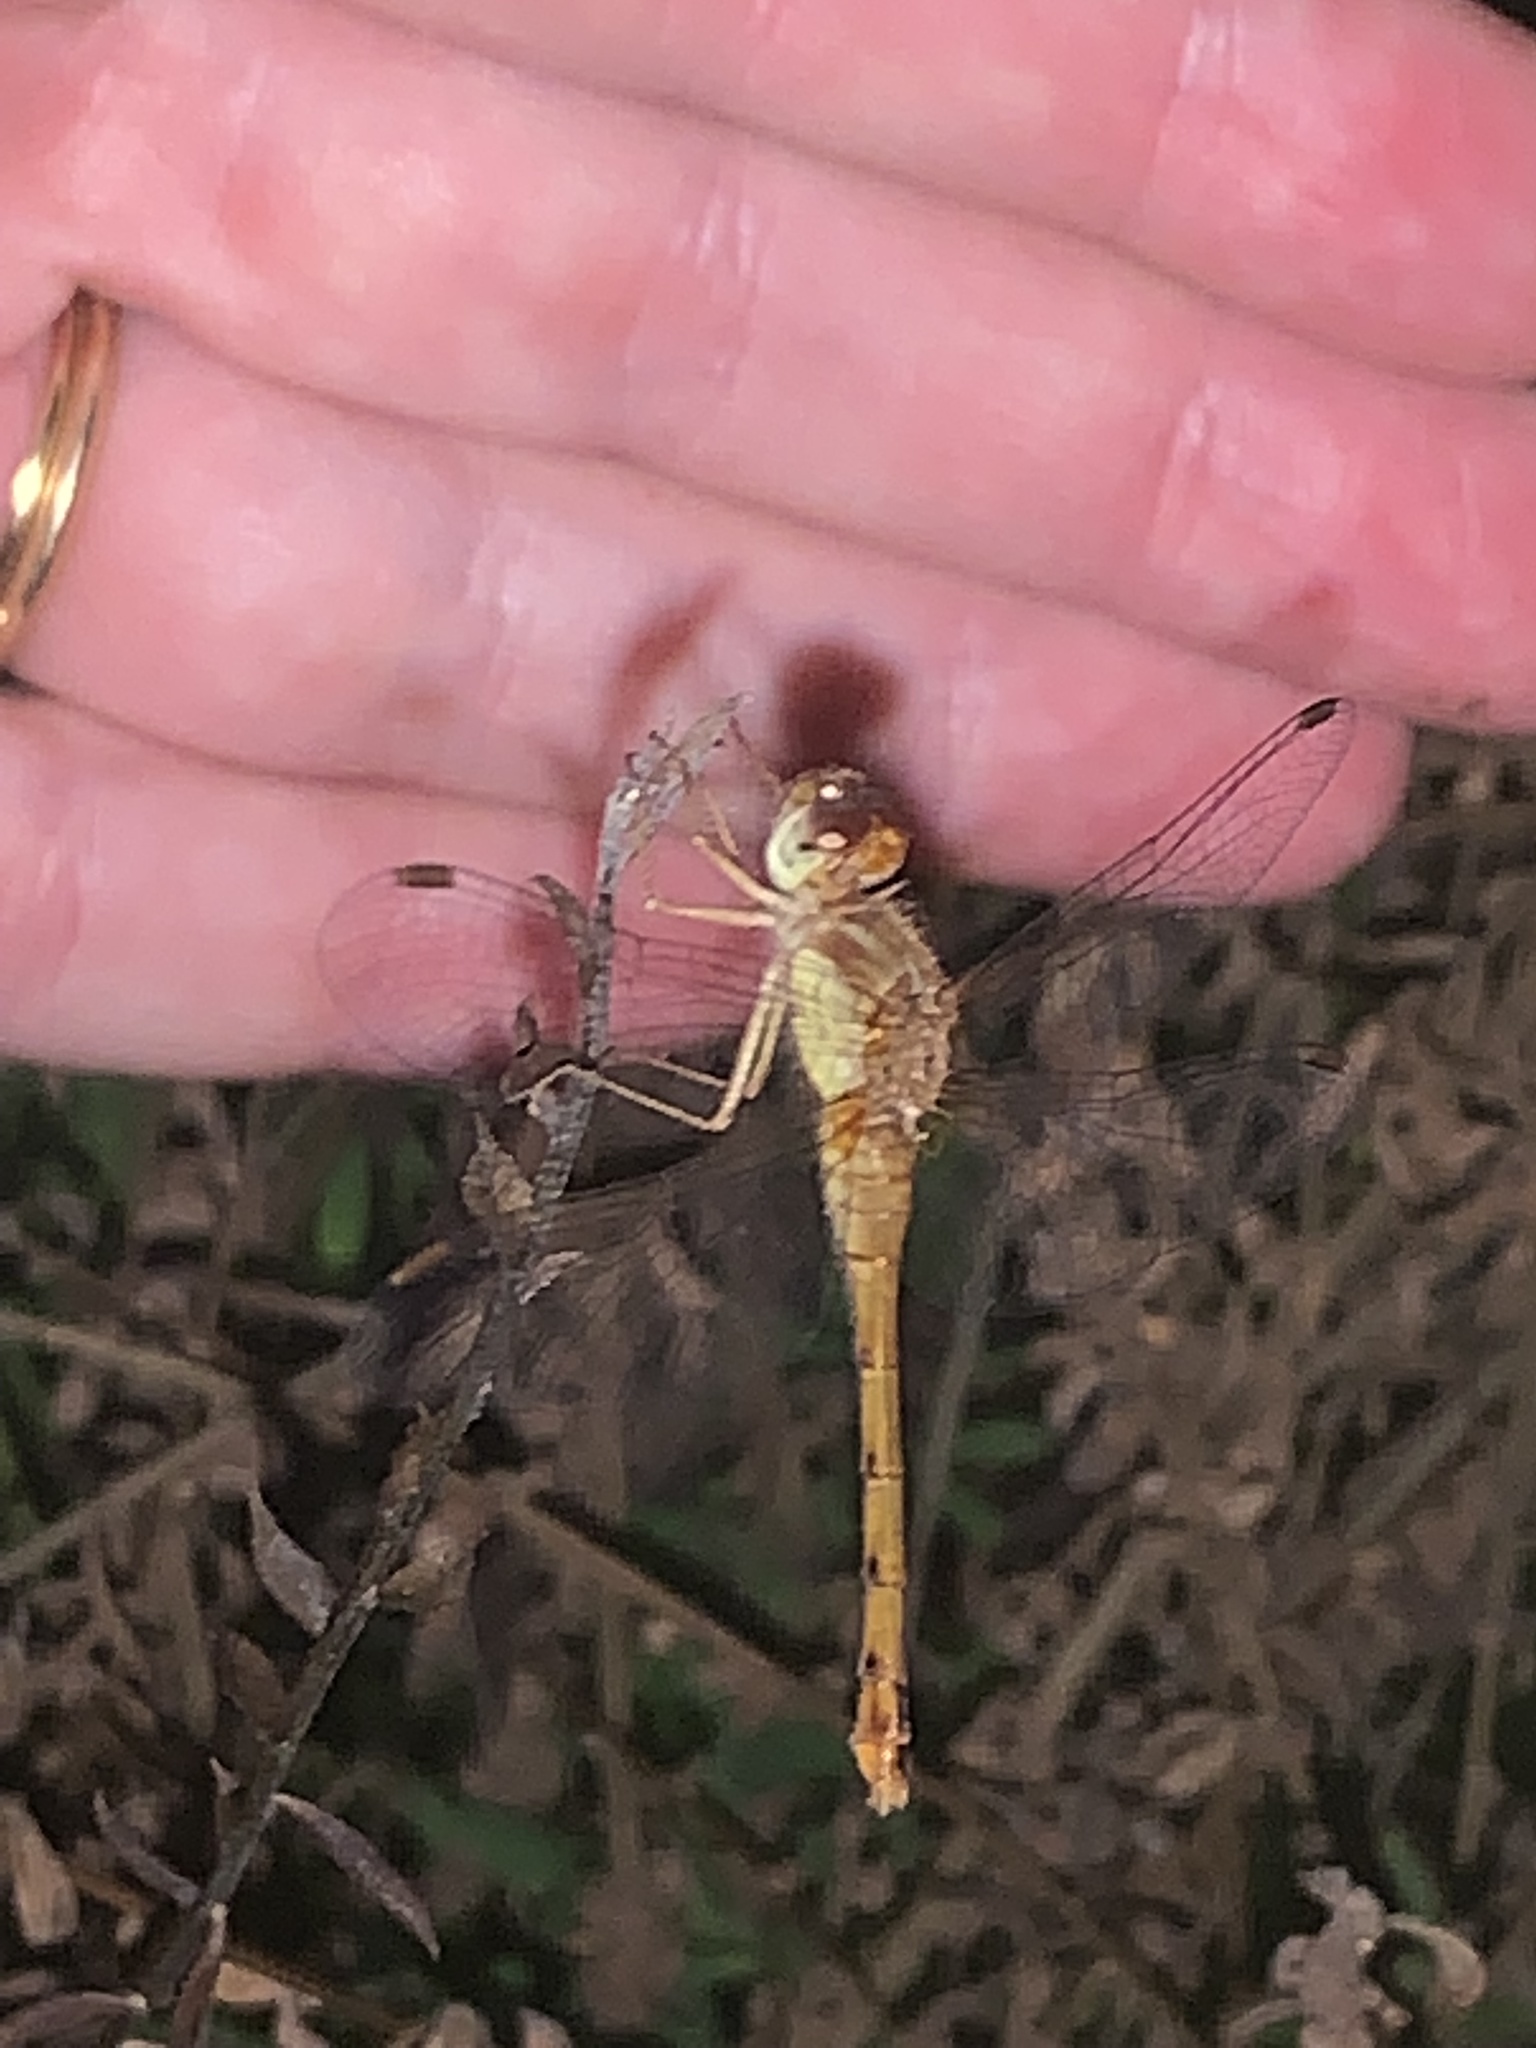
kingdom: Animalia
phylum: Arthropoda
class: Insecta
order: Odonata
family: Libellulidae
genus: Sympetrum
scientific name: Sympetrum vicinum
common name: Autumn meadowhawk
